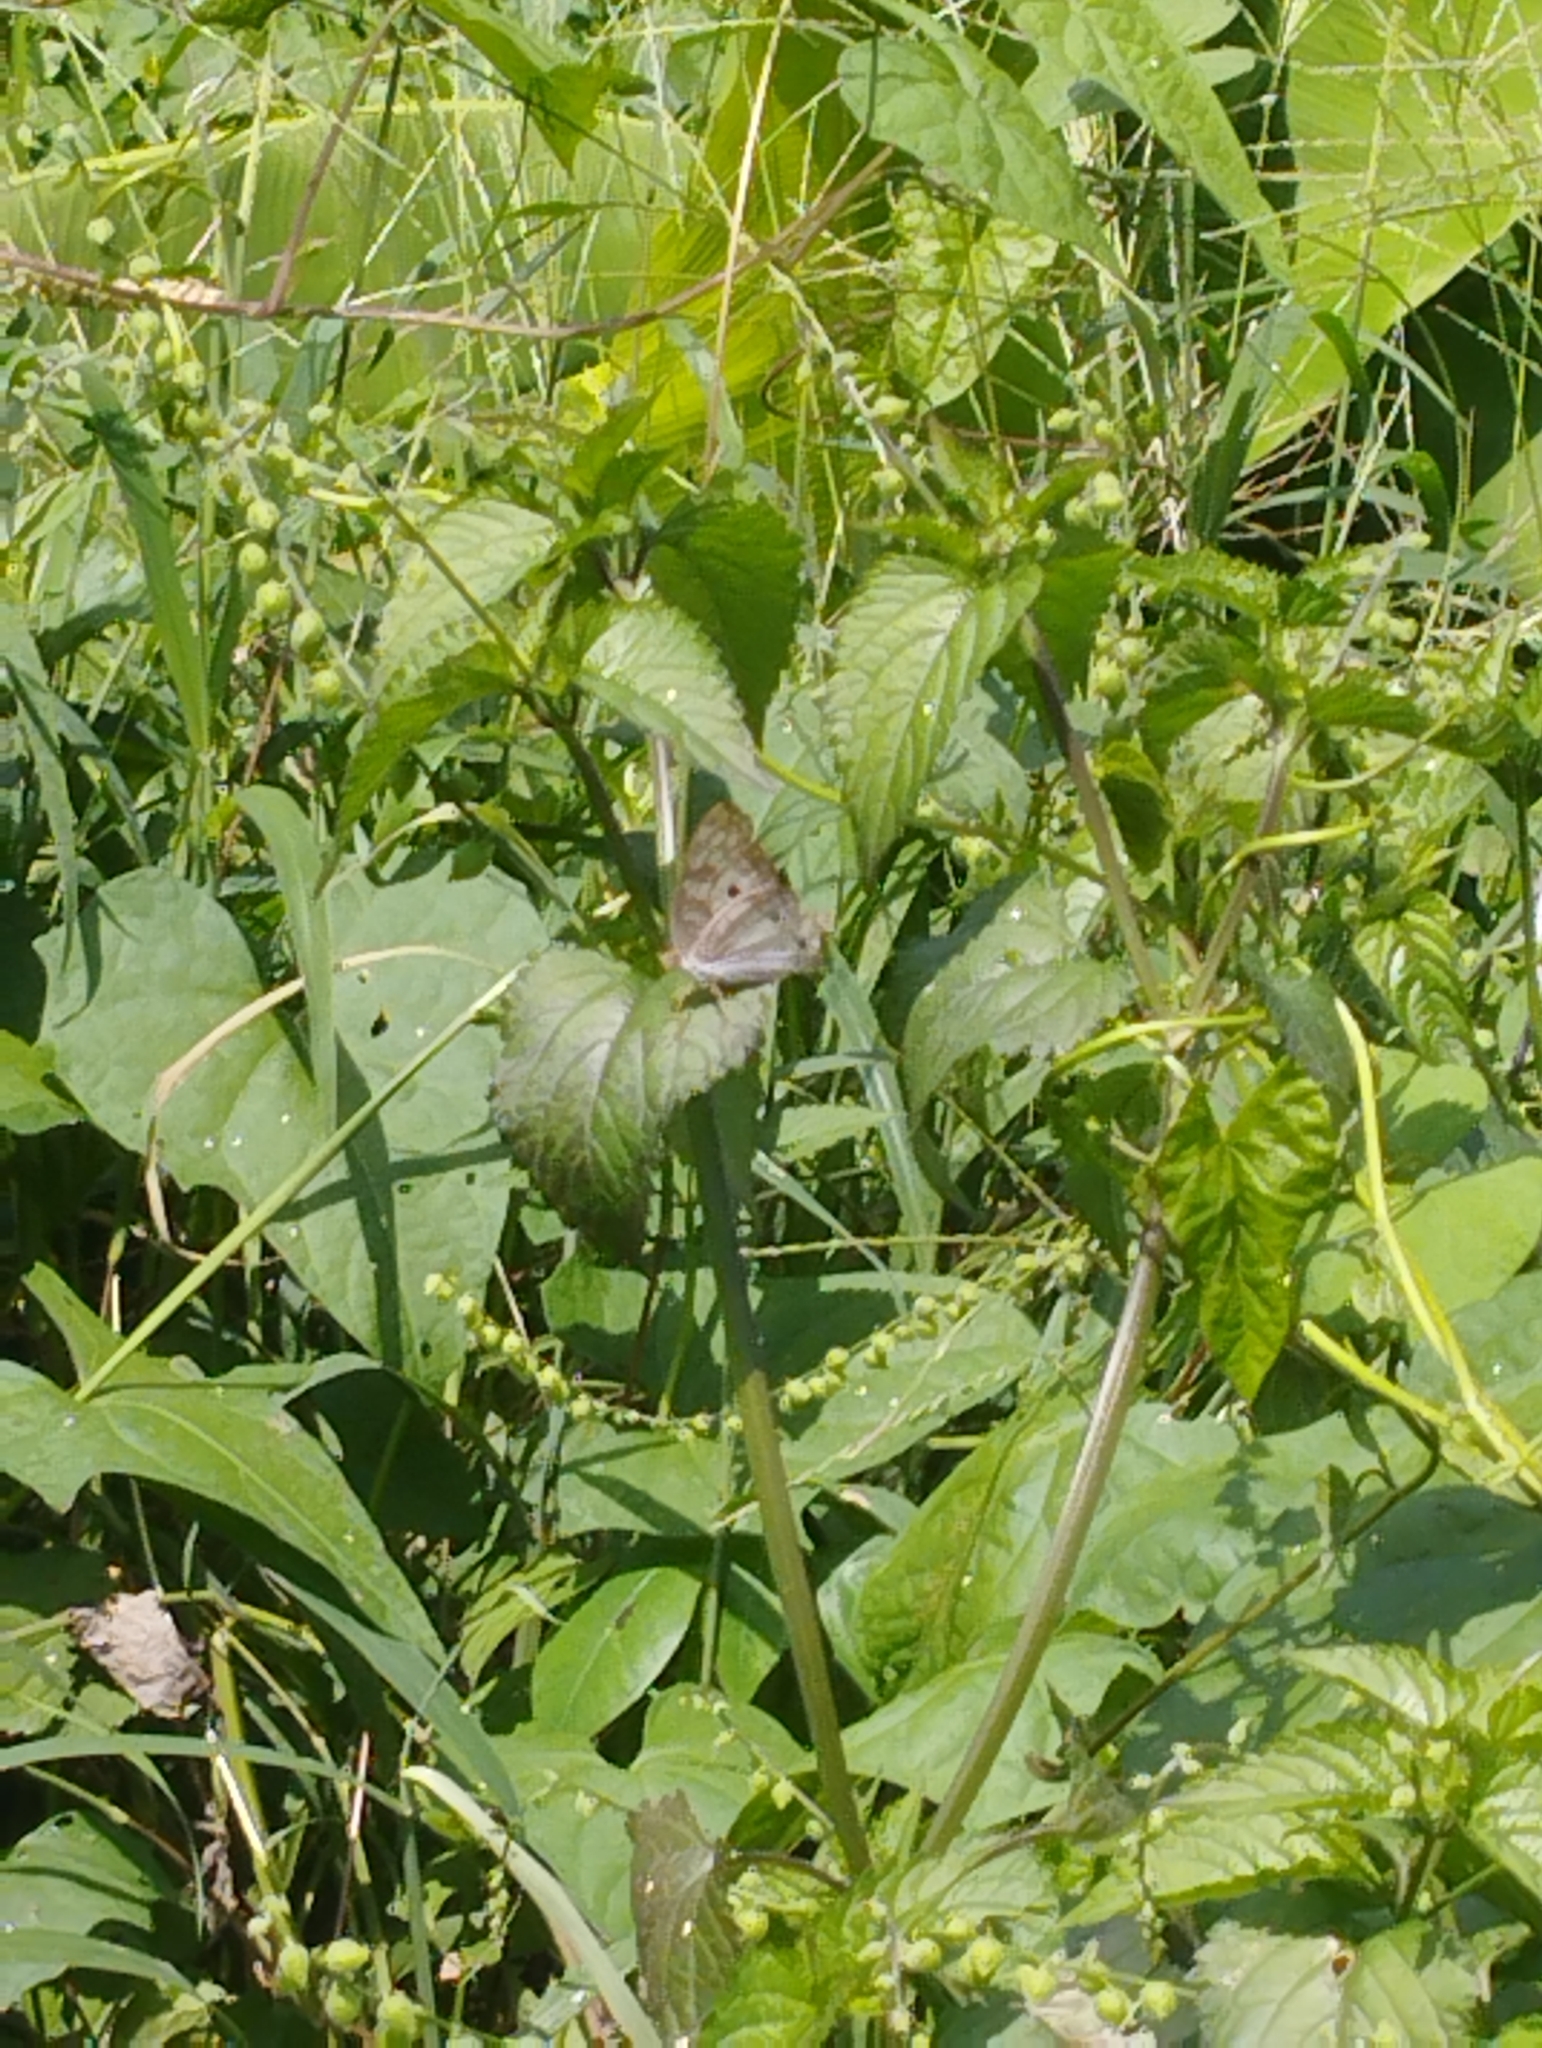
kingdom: Animalia
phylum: Arthropoda
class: Insecta
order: Lepidoptera
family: Nymphalidae
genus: Anartia
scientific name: Anartia jatrophae
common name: White peacock
